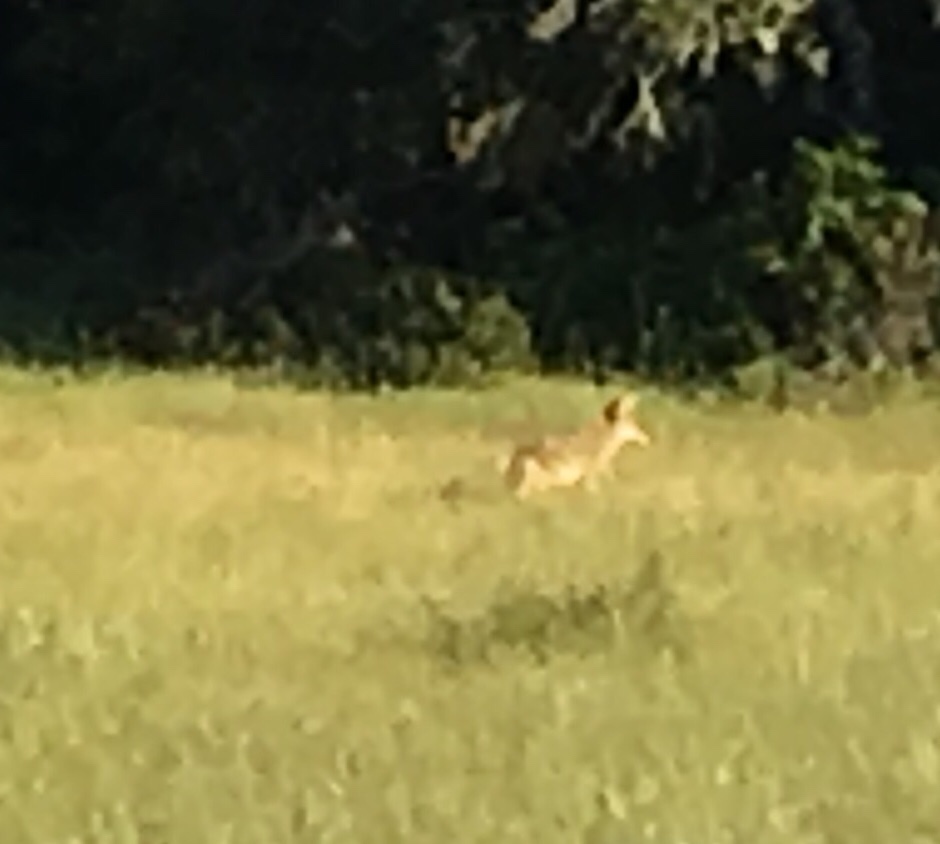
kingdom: Animalia
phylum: Chordata
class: Mammalia
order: Carnivora
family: Canidae
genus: Canis
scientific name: Canis latrans
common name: Coyote
